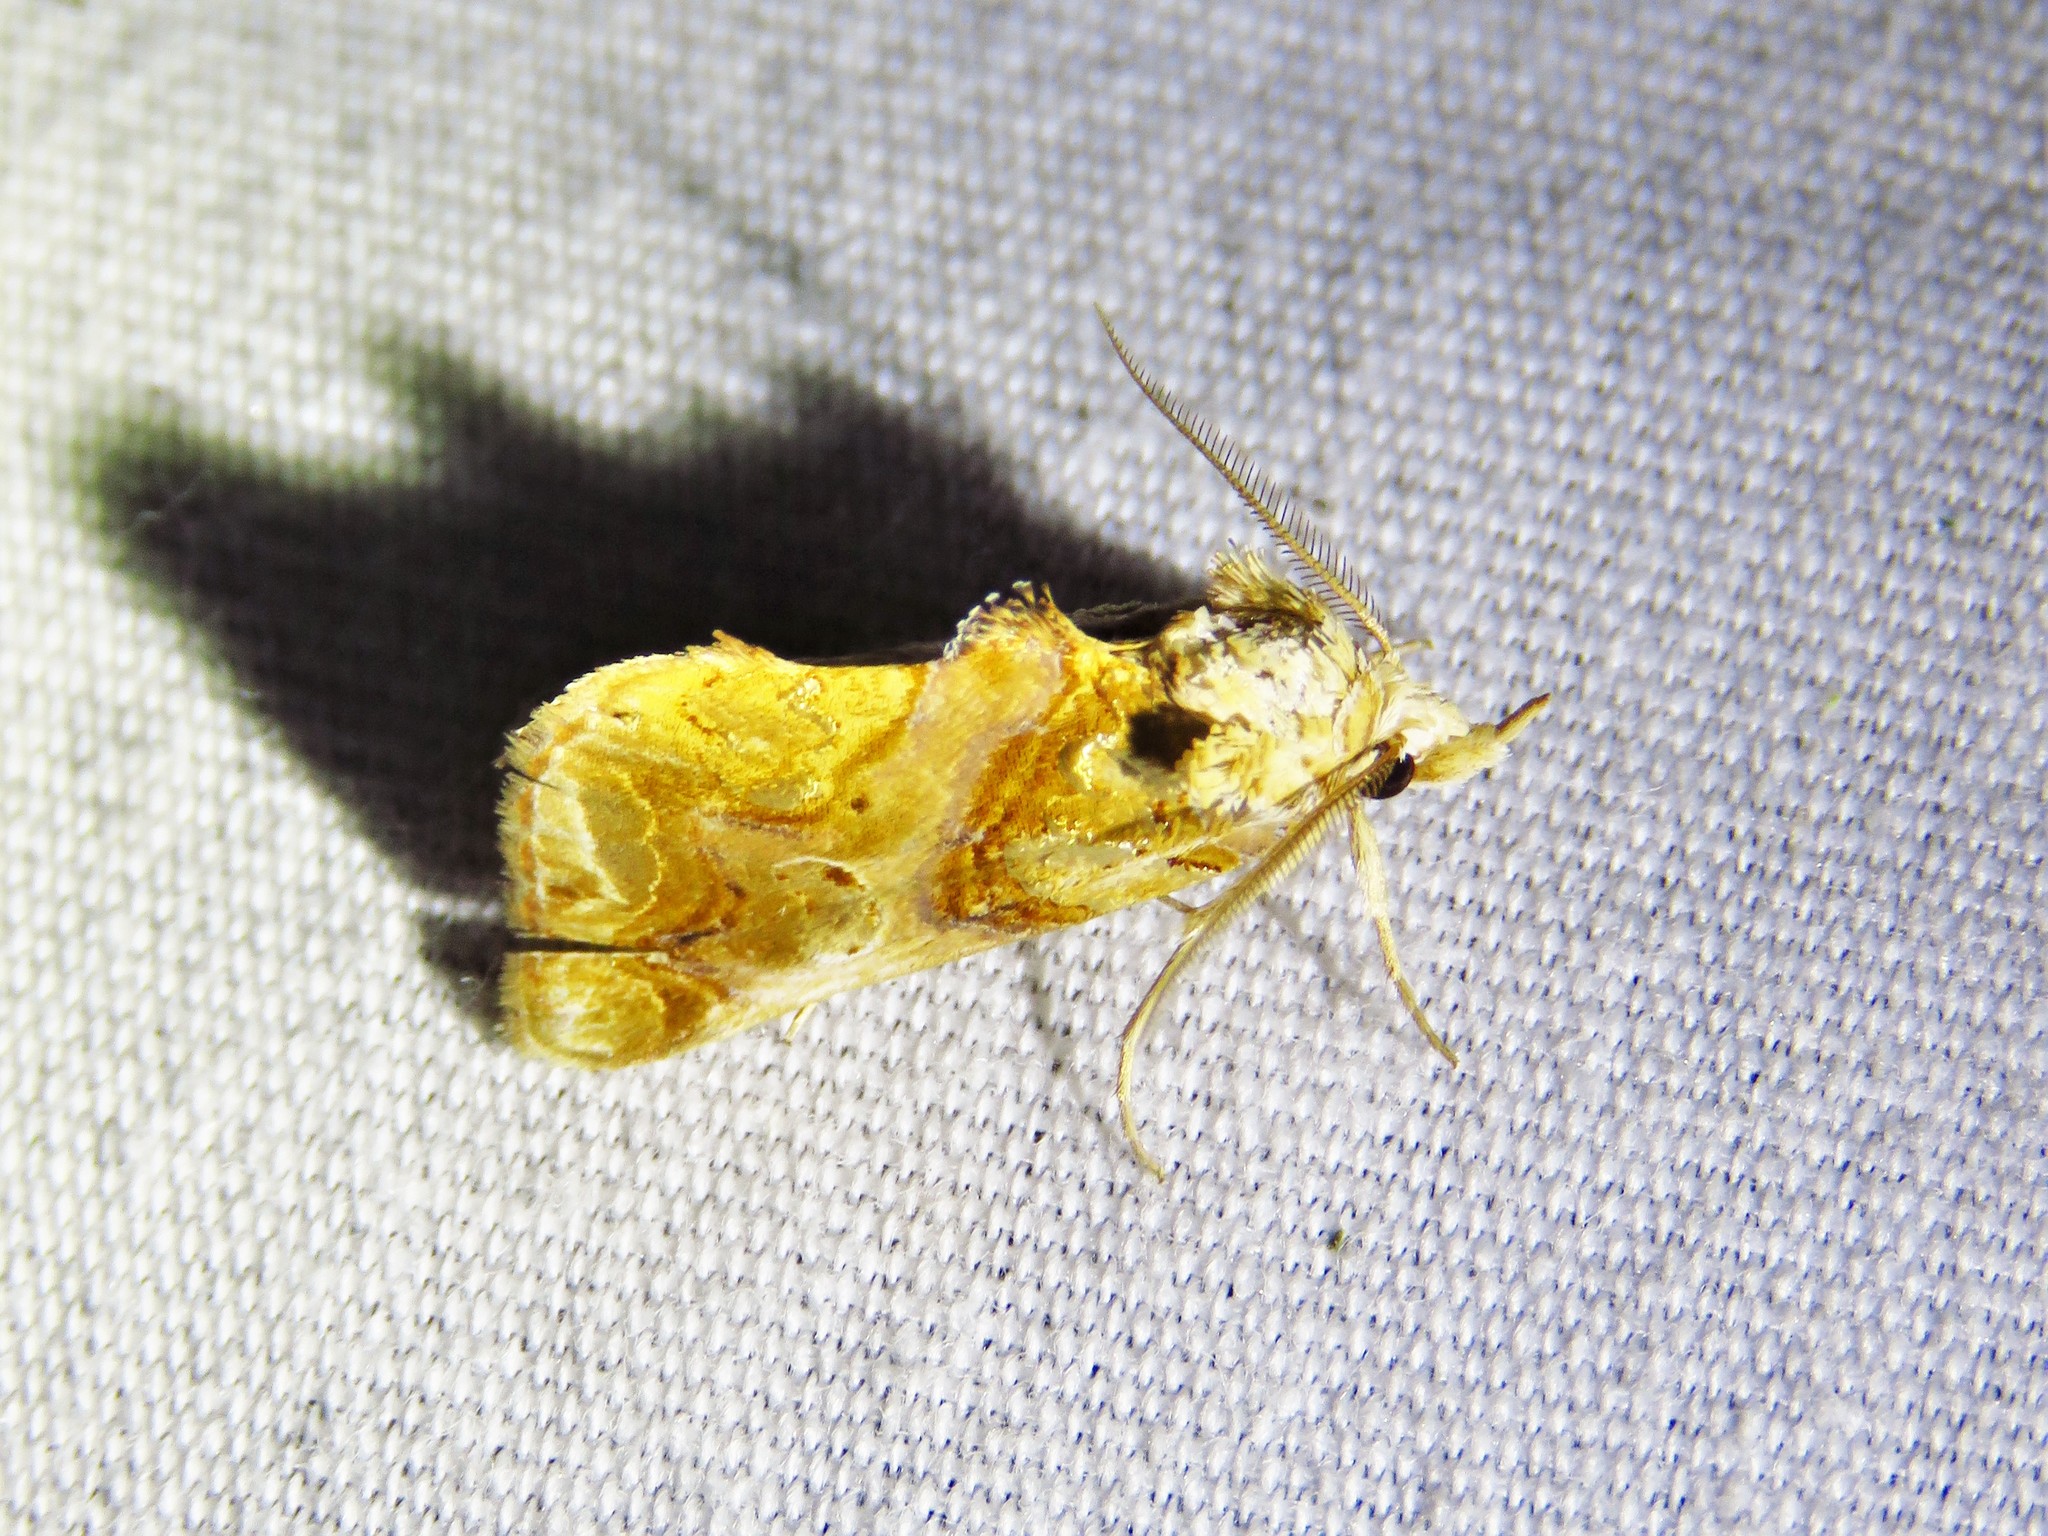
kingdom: Animalia
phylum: Arthropoda
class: Insecta
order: Lepidoptera
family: Erebidae
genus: Plusiodonta
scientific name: Plusiodonta compressipalpis
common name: Moonseed moth
